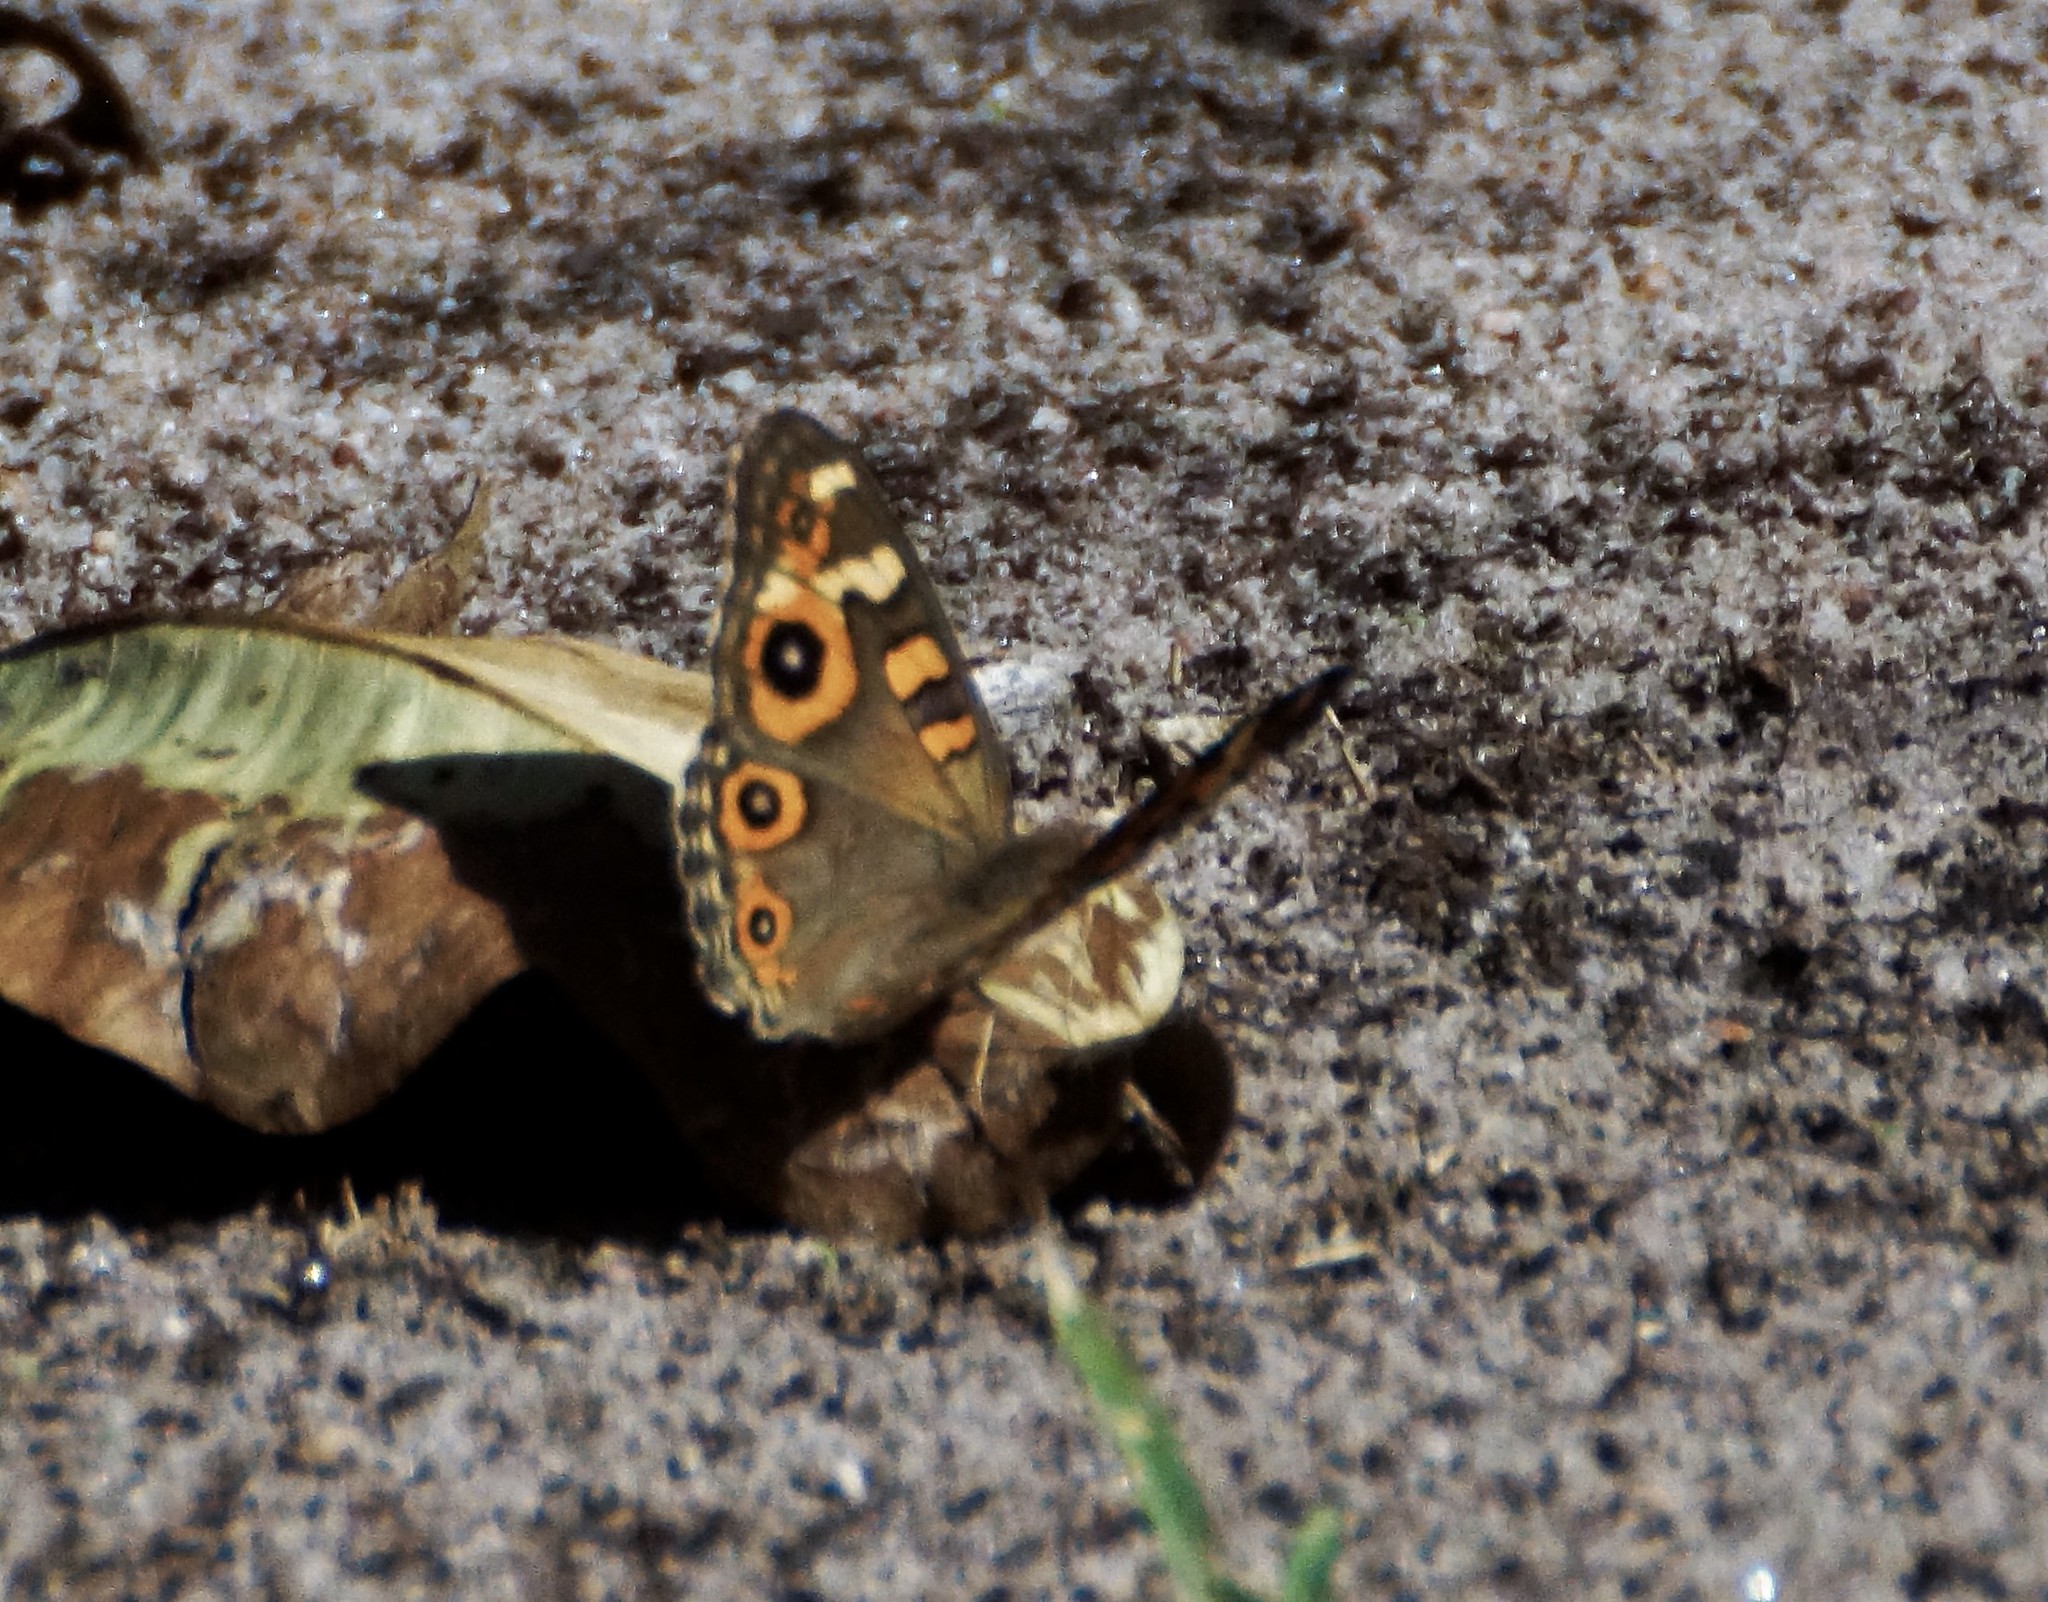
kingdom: Animalia
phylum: Arthropoda
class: Insecta
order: Lepidoptera
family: Nymphalidae
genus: Junonia
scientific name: Junonia villida
